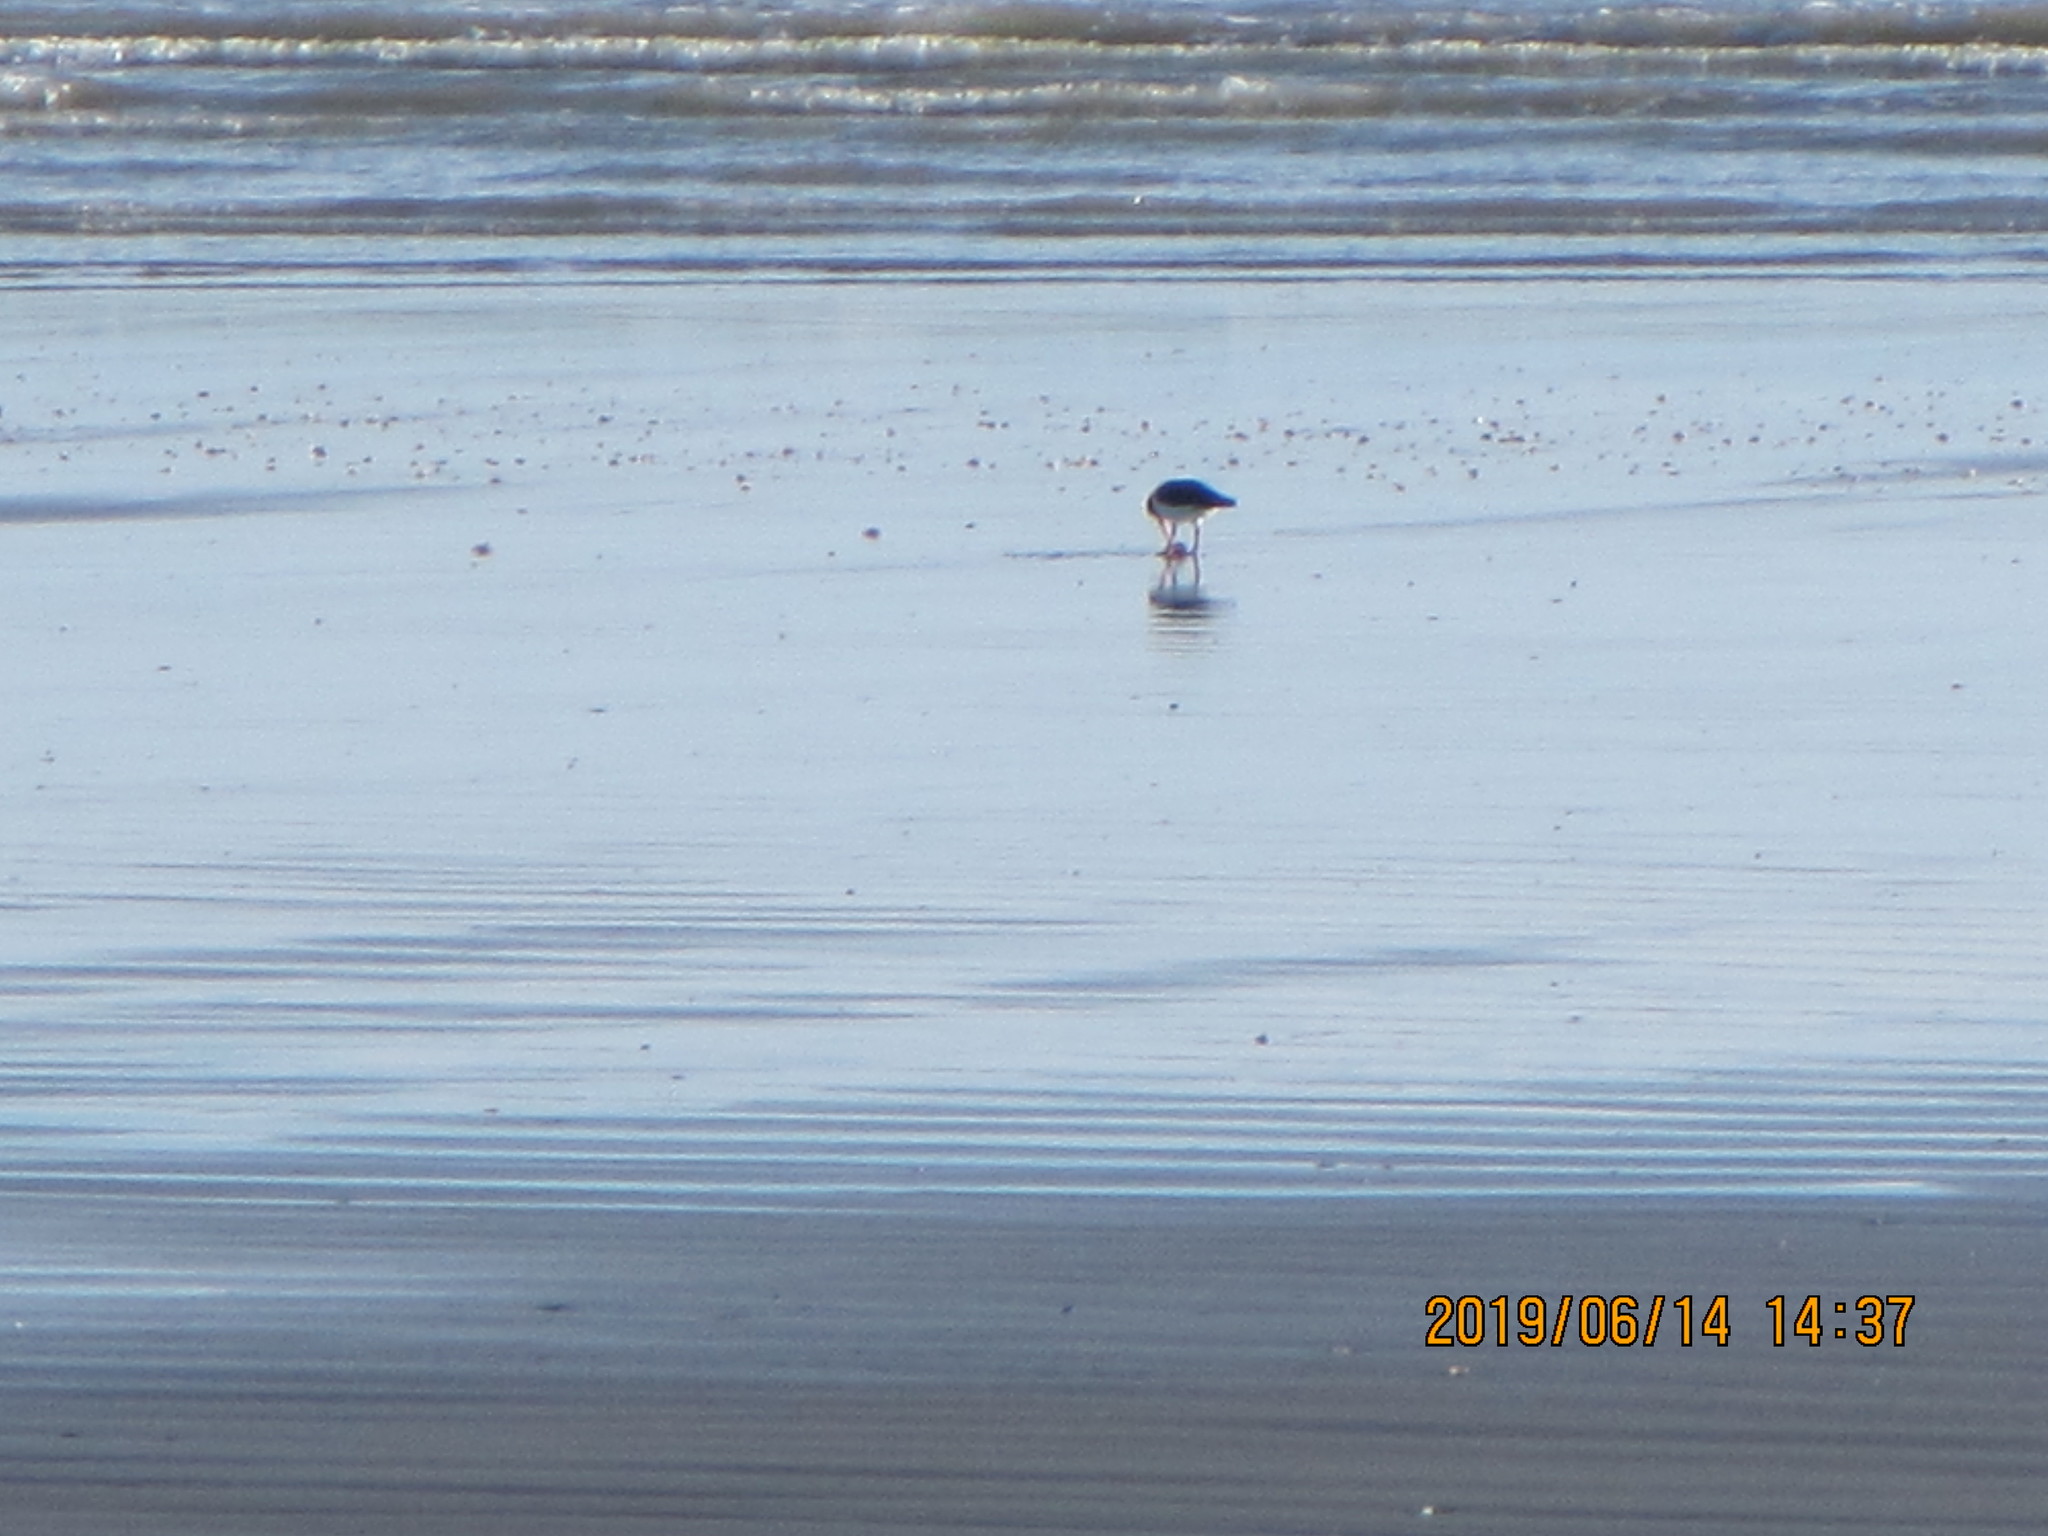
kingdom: Animalia
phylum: Chordata
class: Aves
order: Charadriiformes
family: Haematopodidae
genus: Haematopus
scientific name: Haematopus finschi
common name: South island oystercatcher
